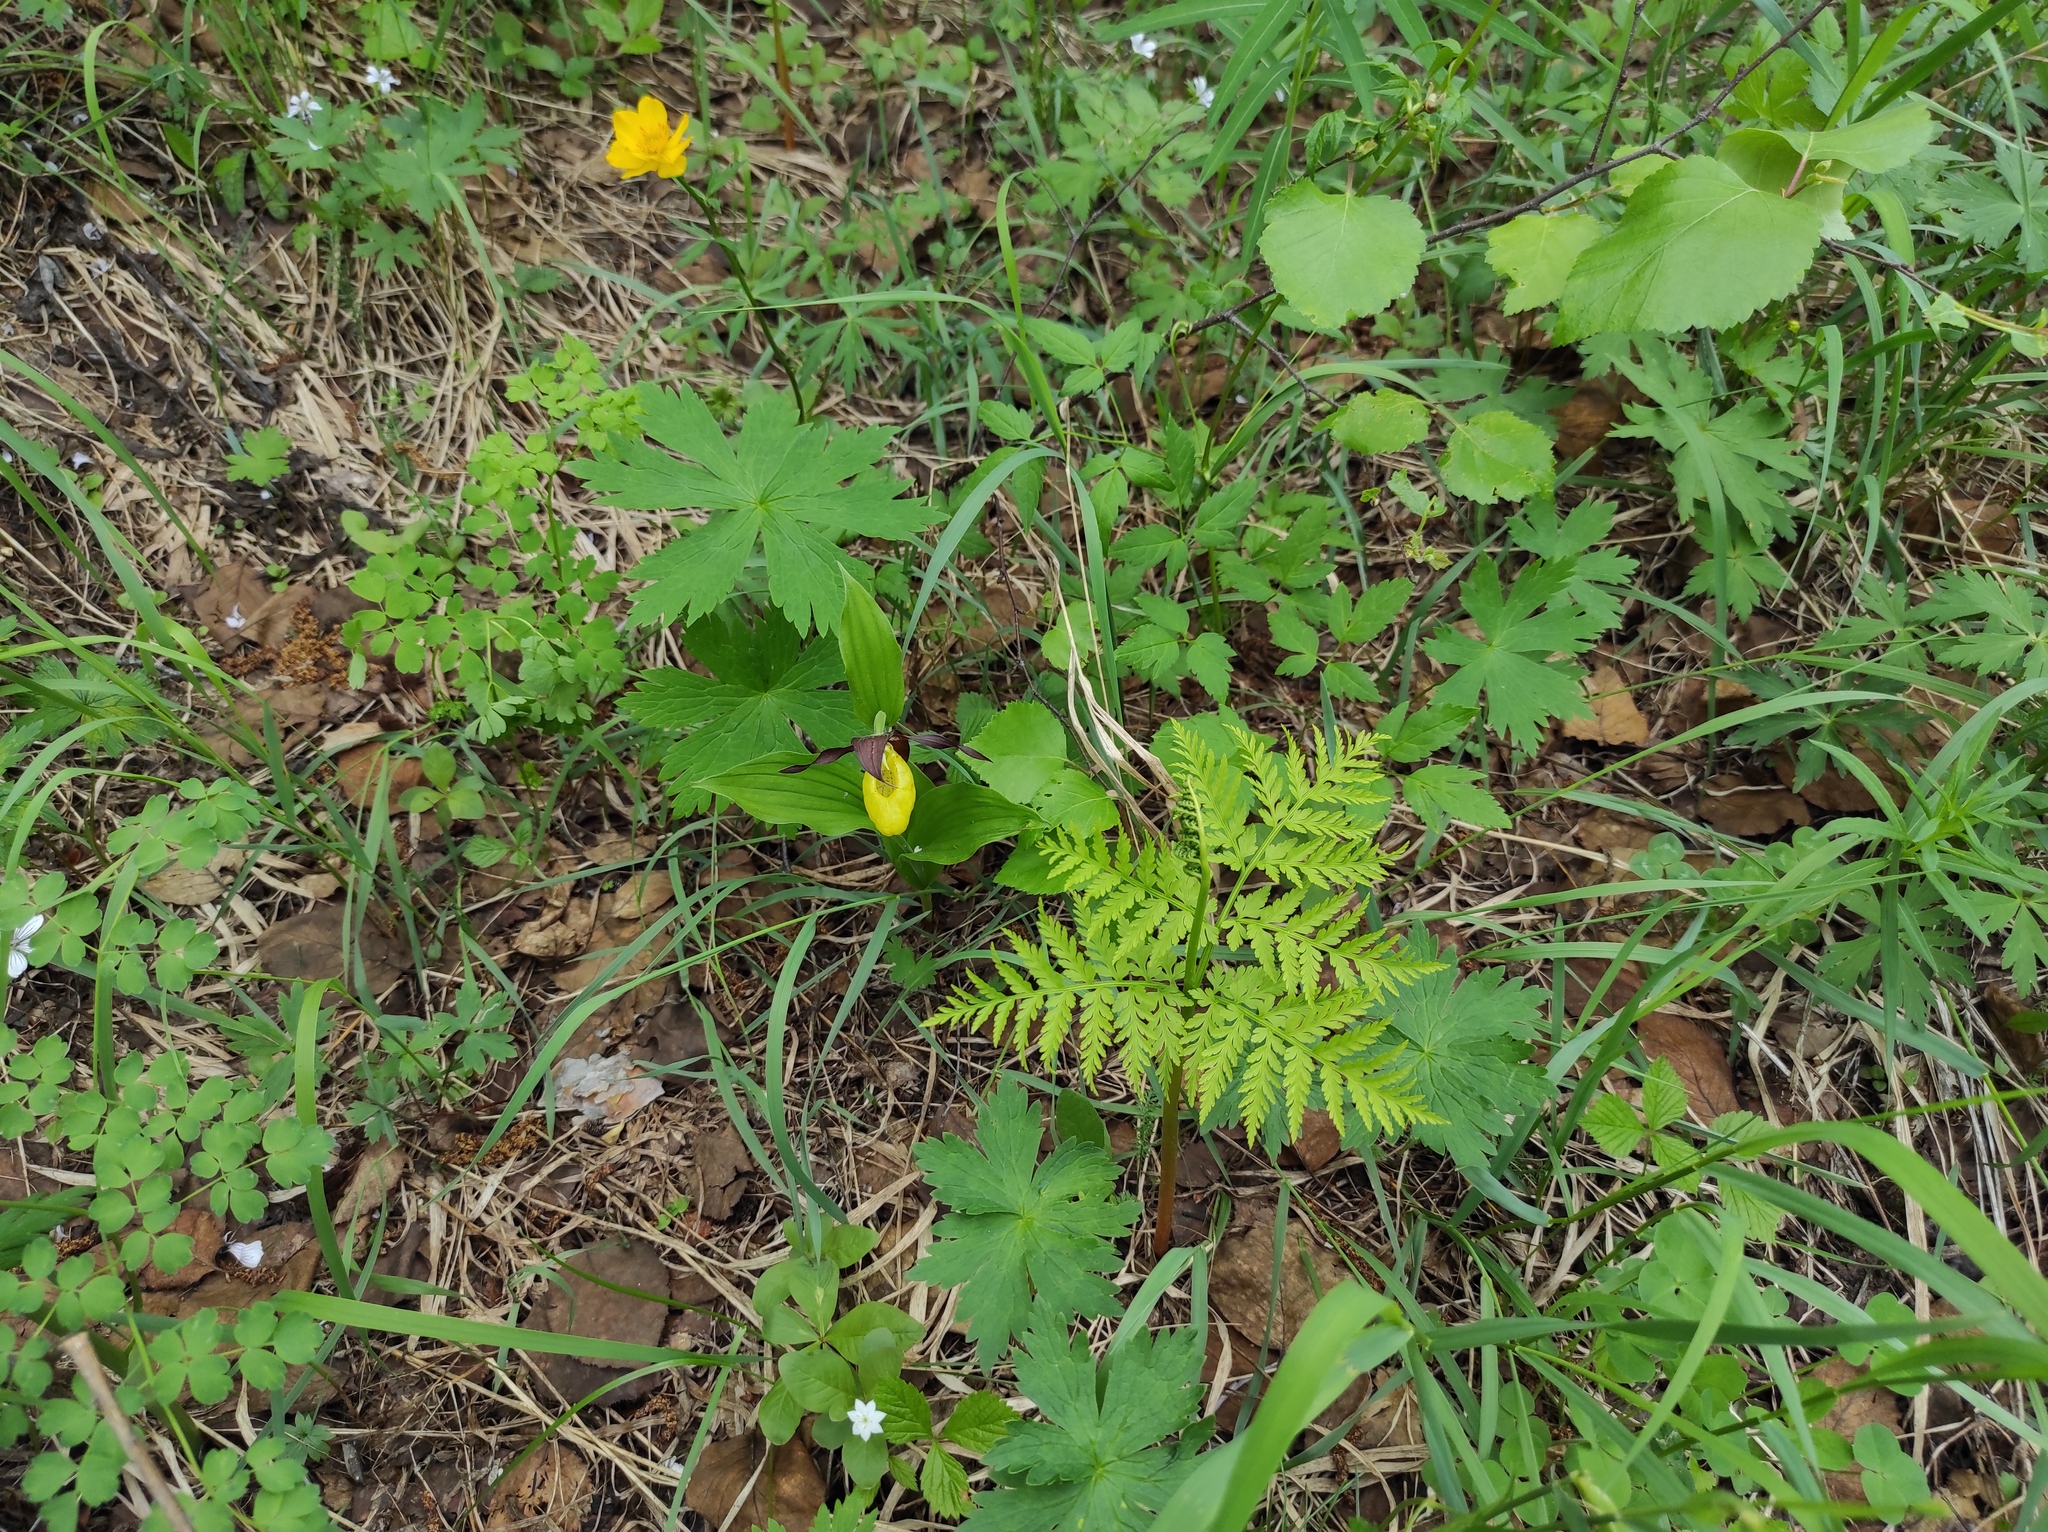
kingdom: Plantae
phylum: Tracheophyta
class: Polypodiopsida
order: Ophioglossales
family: Ophioglossaceae
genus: Botrypus
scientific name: Botrypus virginianus
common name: Common grapefern
